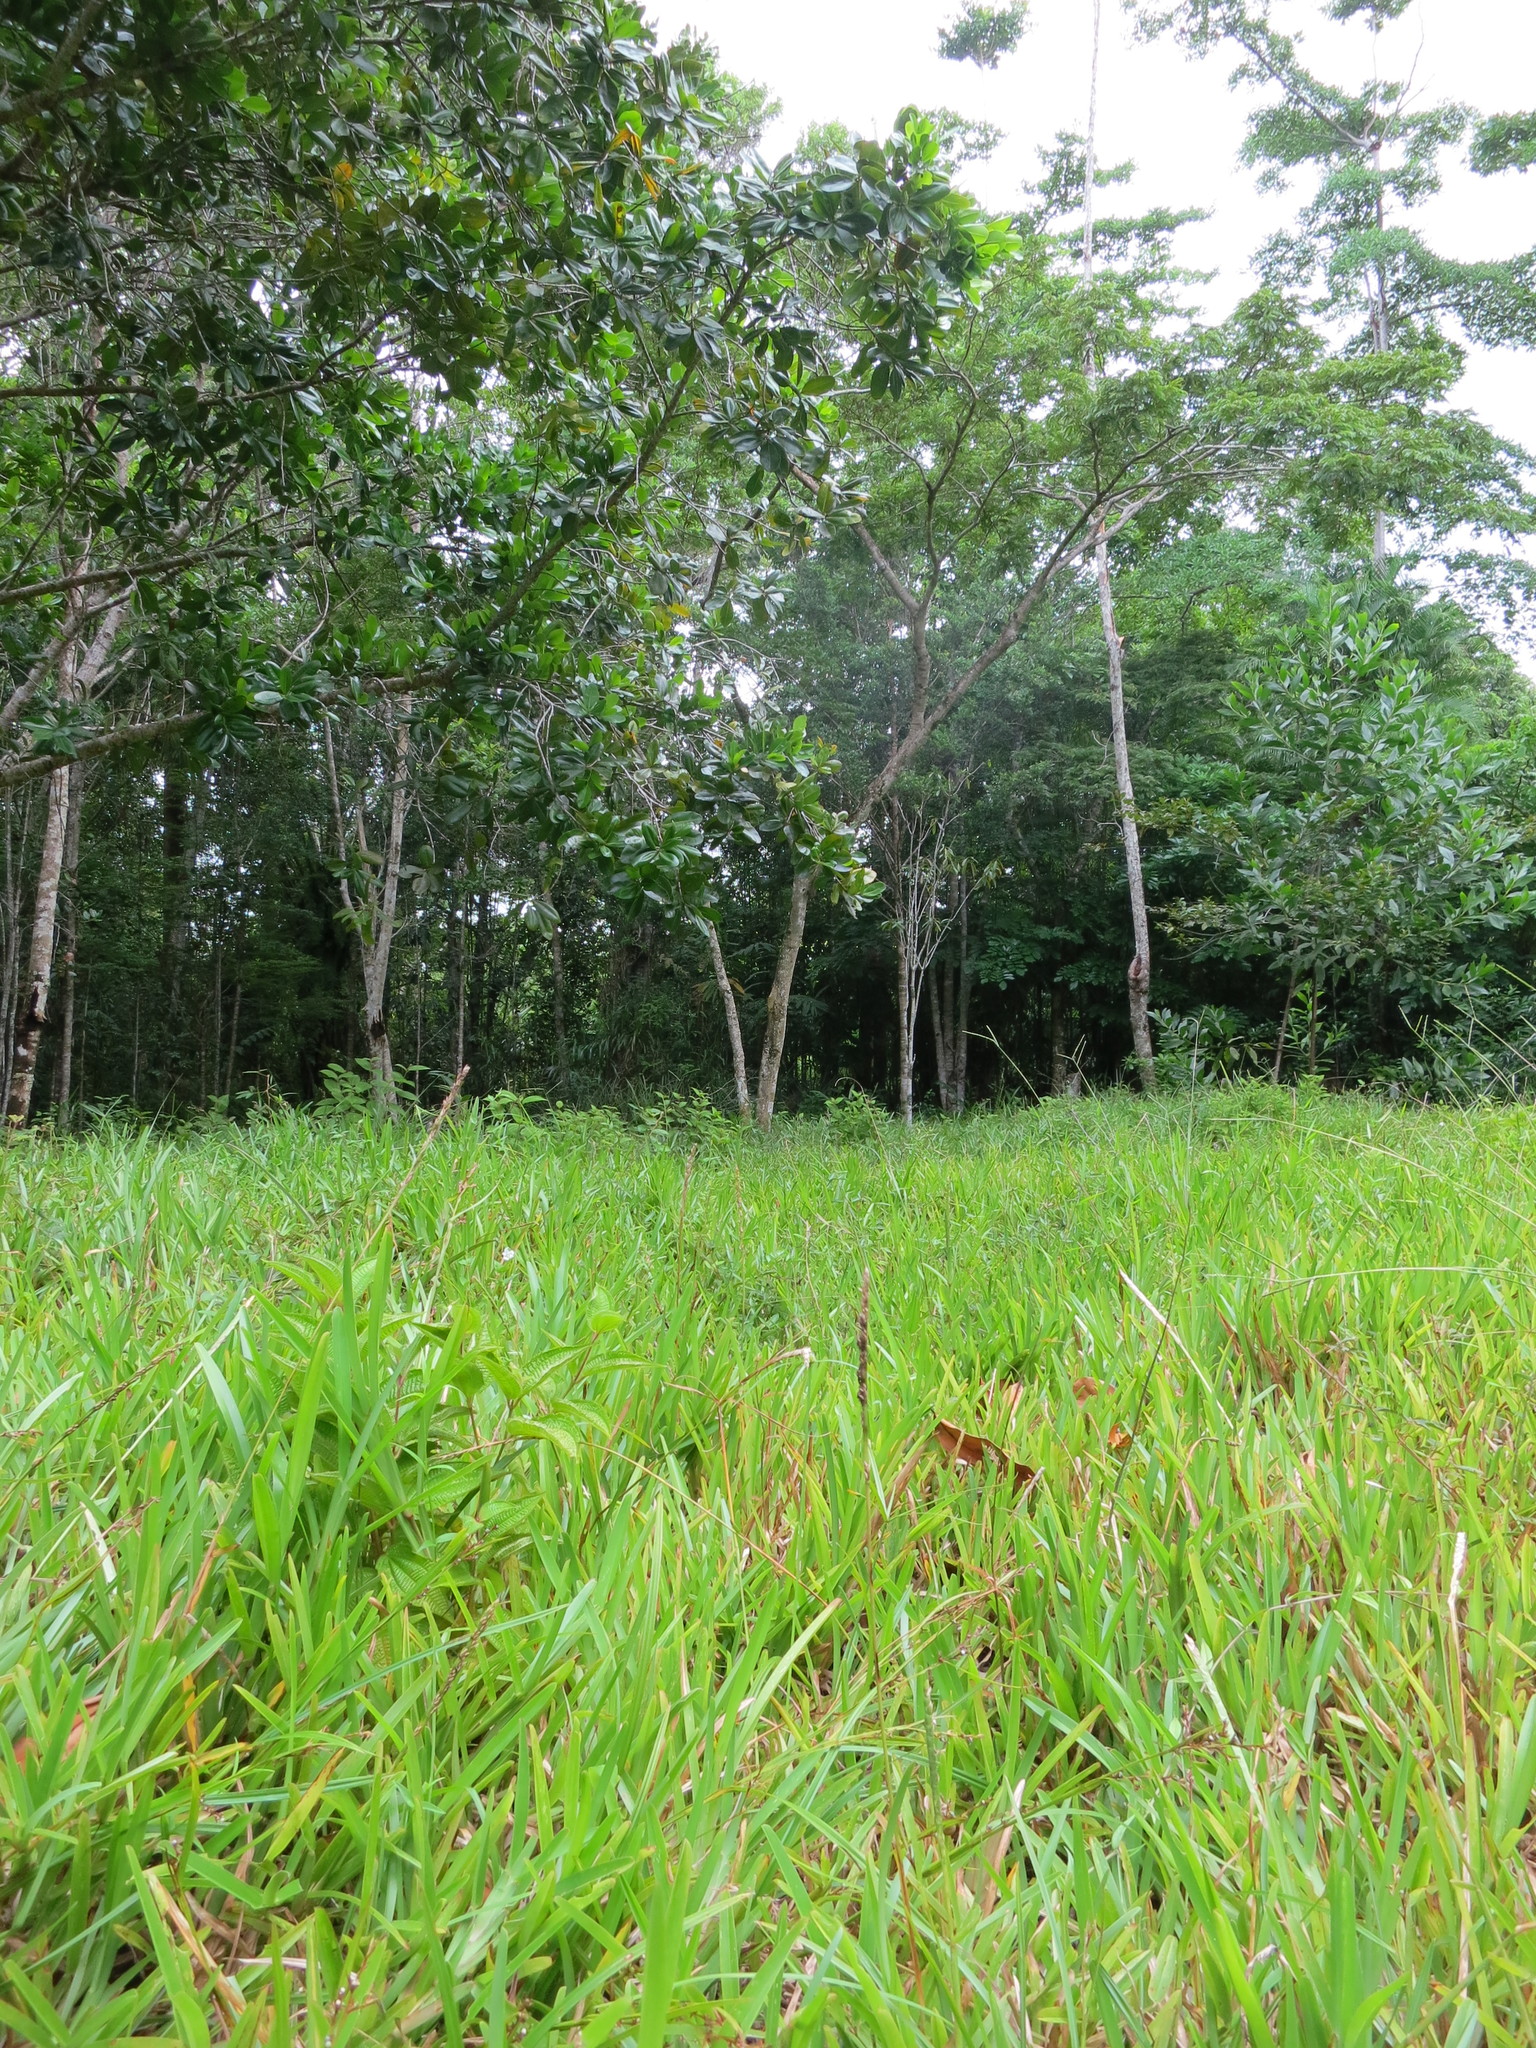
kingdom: Plantae
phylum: Tracheophyta
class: Liliopsida
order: Poales
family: Poaceae
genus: Stenotaphrum
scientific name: Stenotaphrum dimidiatum
